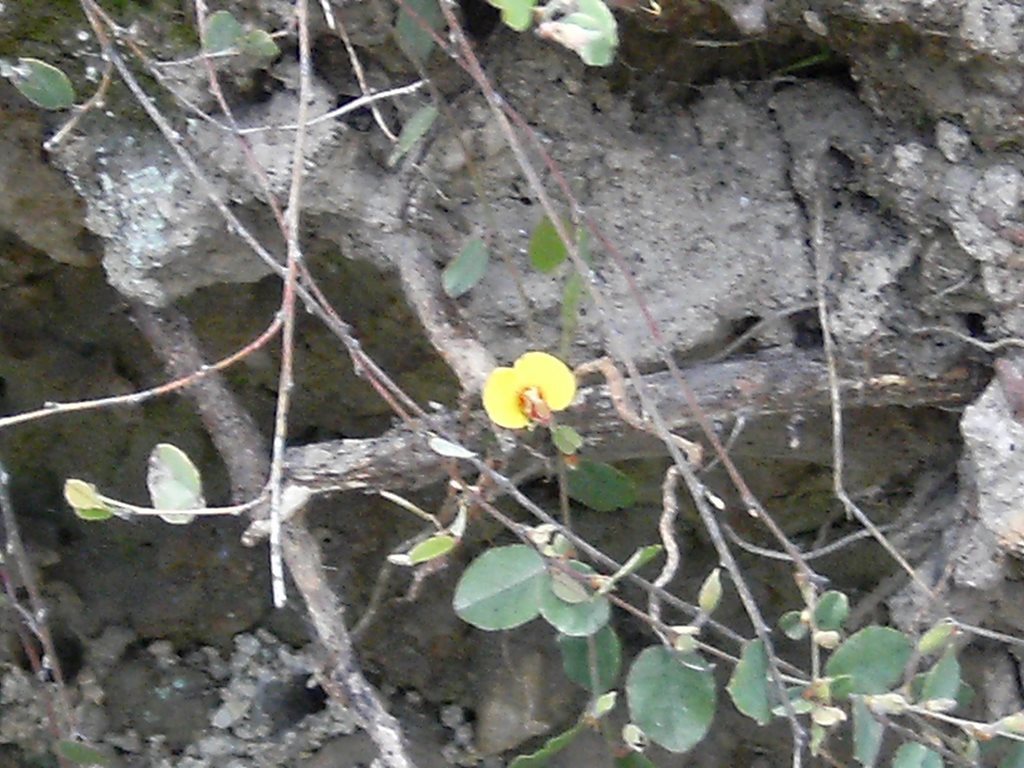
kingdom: Plantae
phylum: Tracheophyta
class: Magnoliopsida
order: Fabales
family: Fabaceae
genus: Bossiaea
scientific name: Bossiaea prostrata
